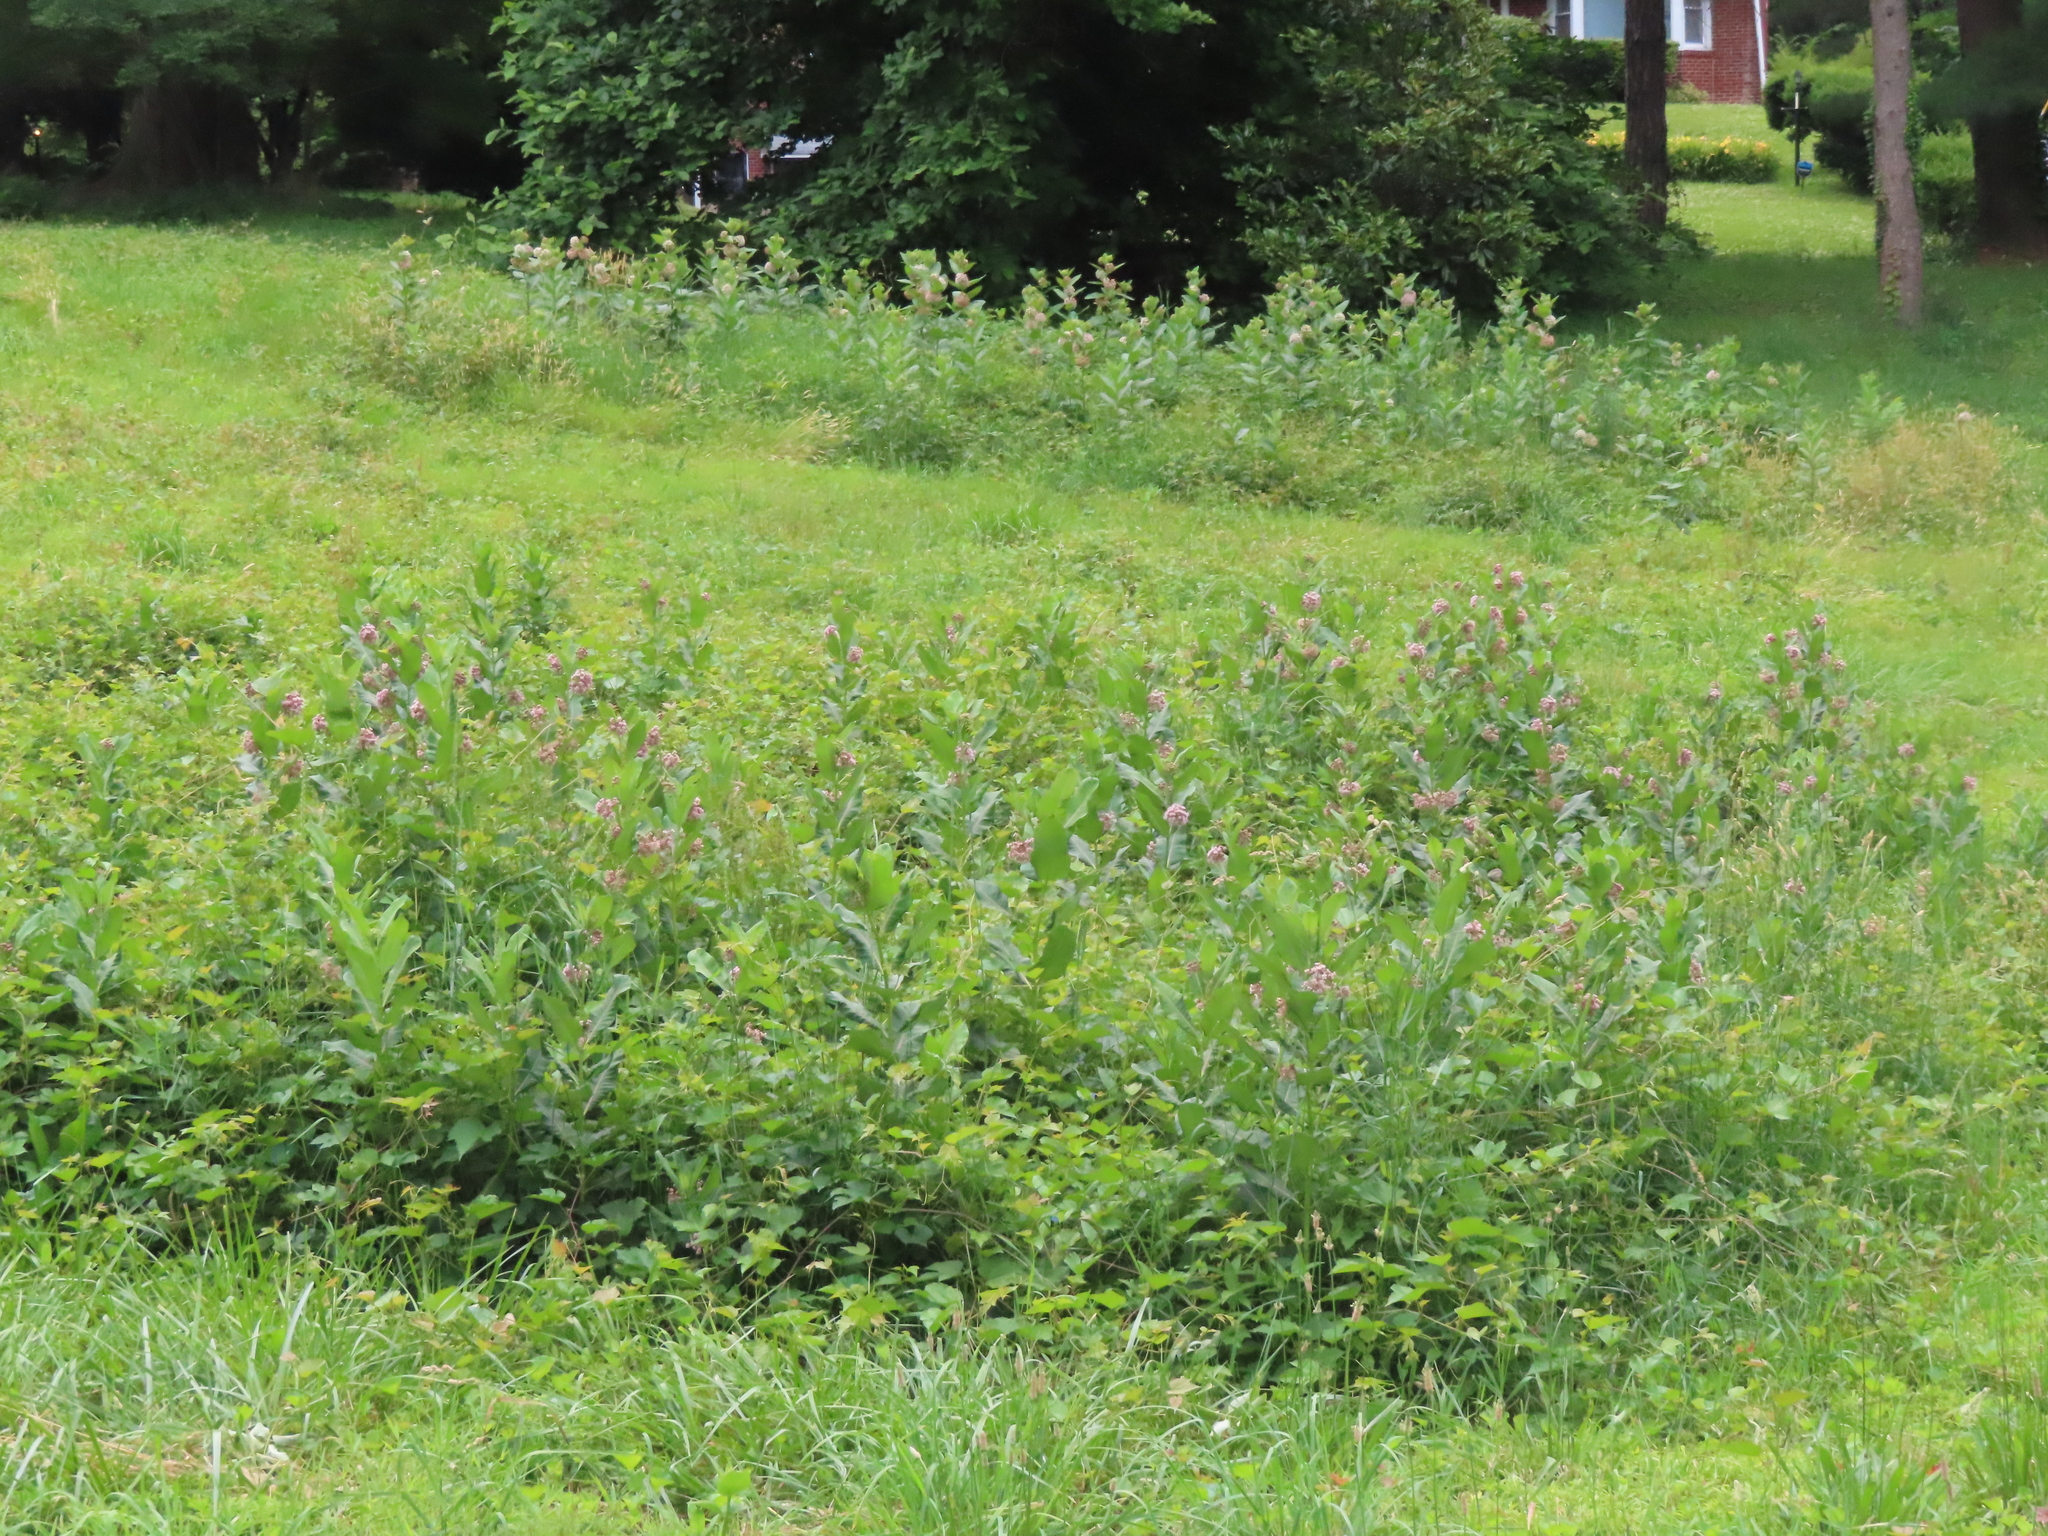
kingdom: Plantae
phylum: Tracheophyta
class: Magnoliopsida
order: Gentianales
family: Apocynaceae
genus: Asclepias
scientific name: Asclepias syriaca
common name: Common milkweed
